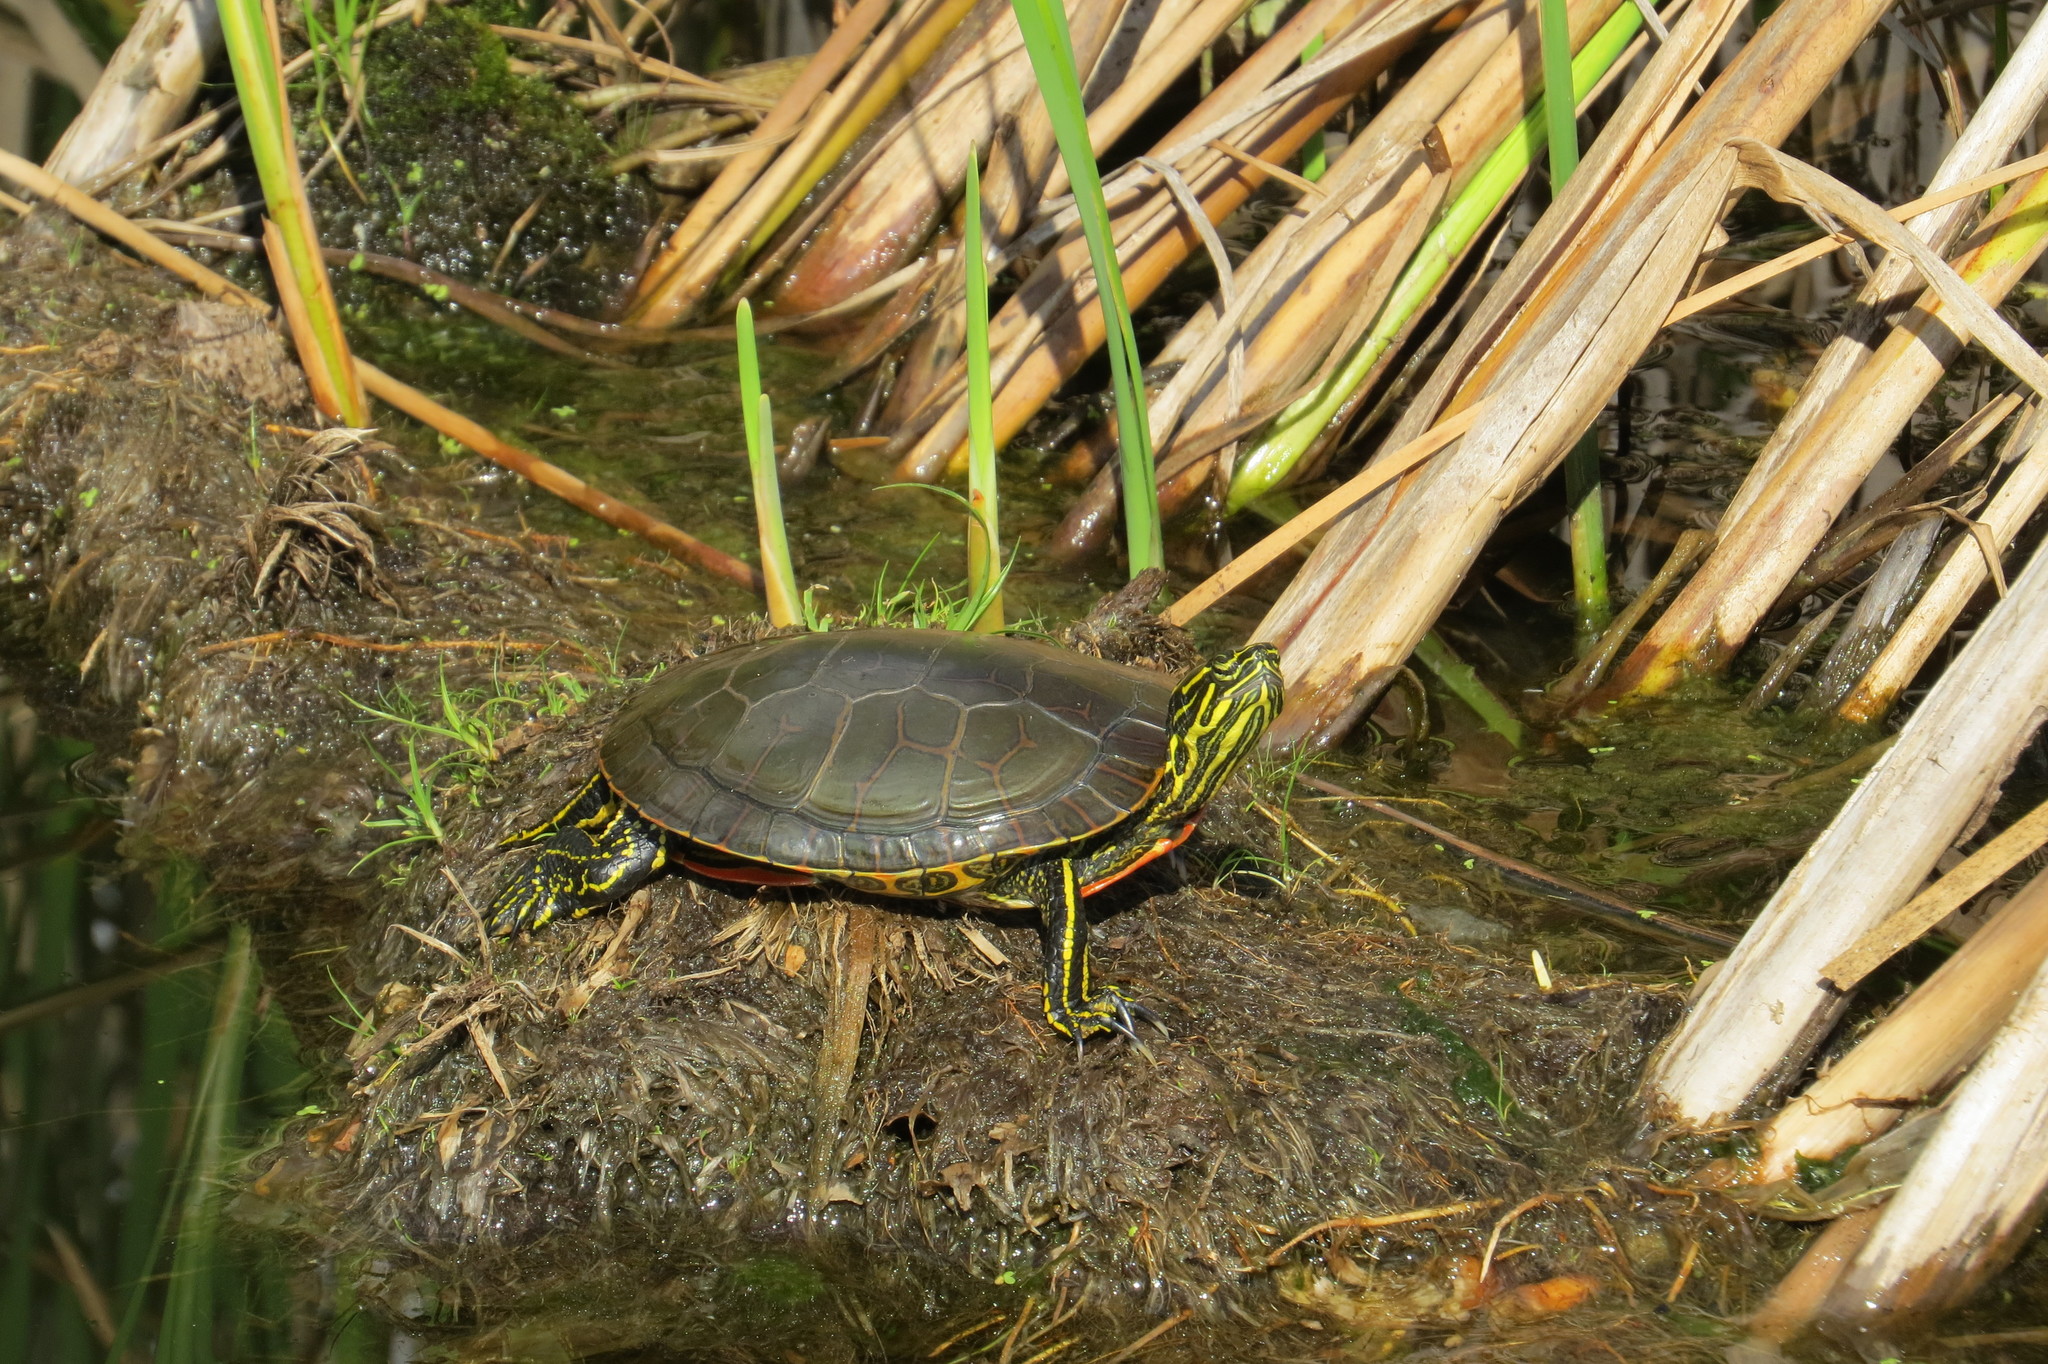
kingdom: Animalia
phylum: Chordata
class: Testudines
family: Emydidae
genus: Chrysemys
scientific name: Chrysemys picta
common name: Painted turtle
